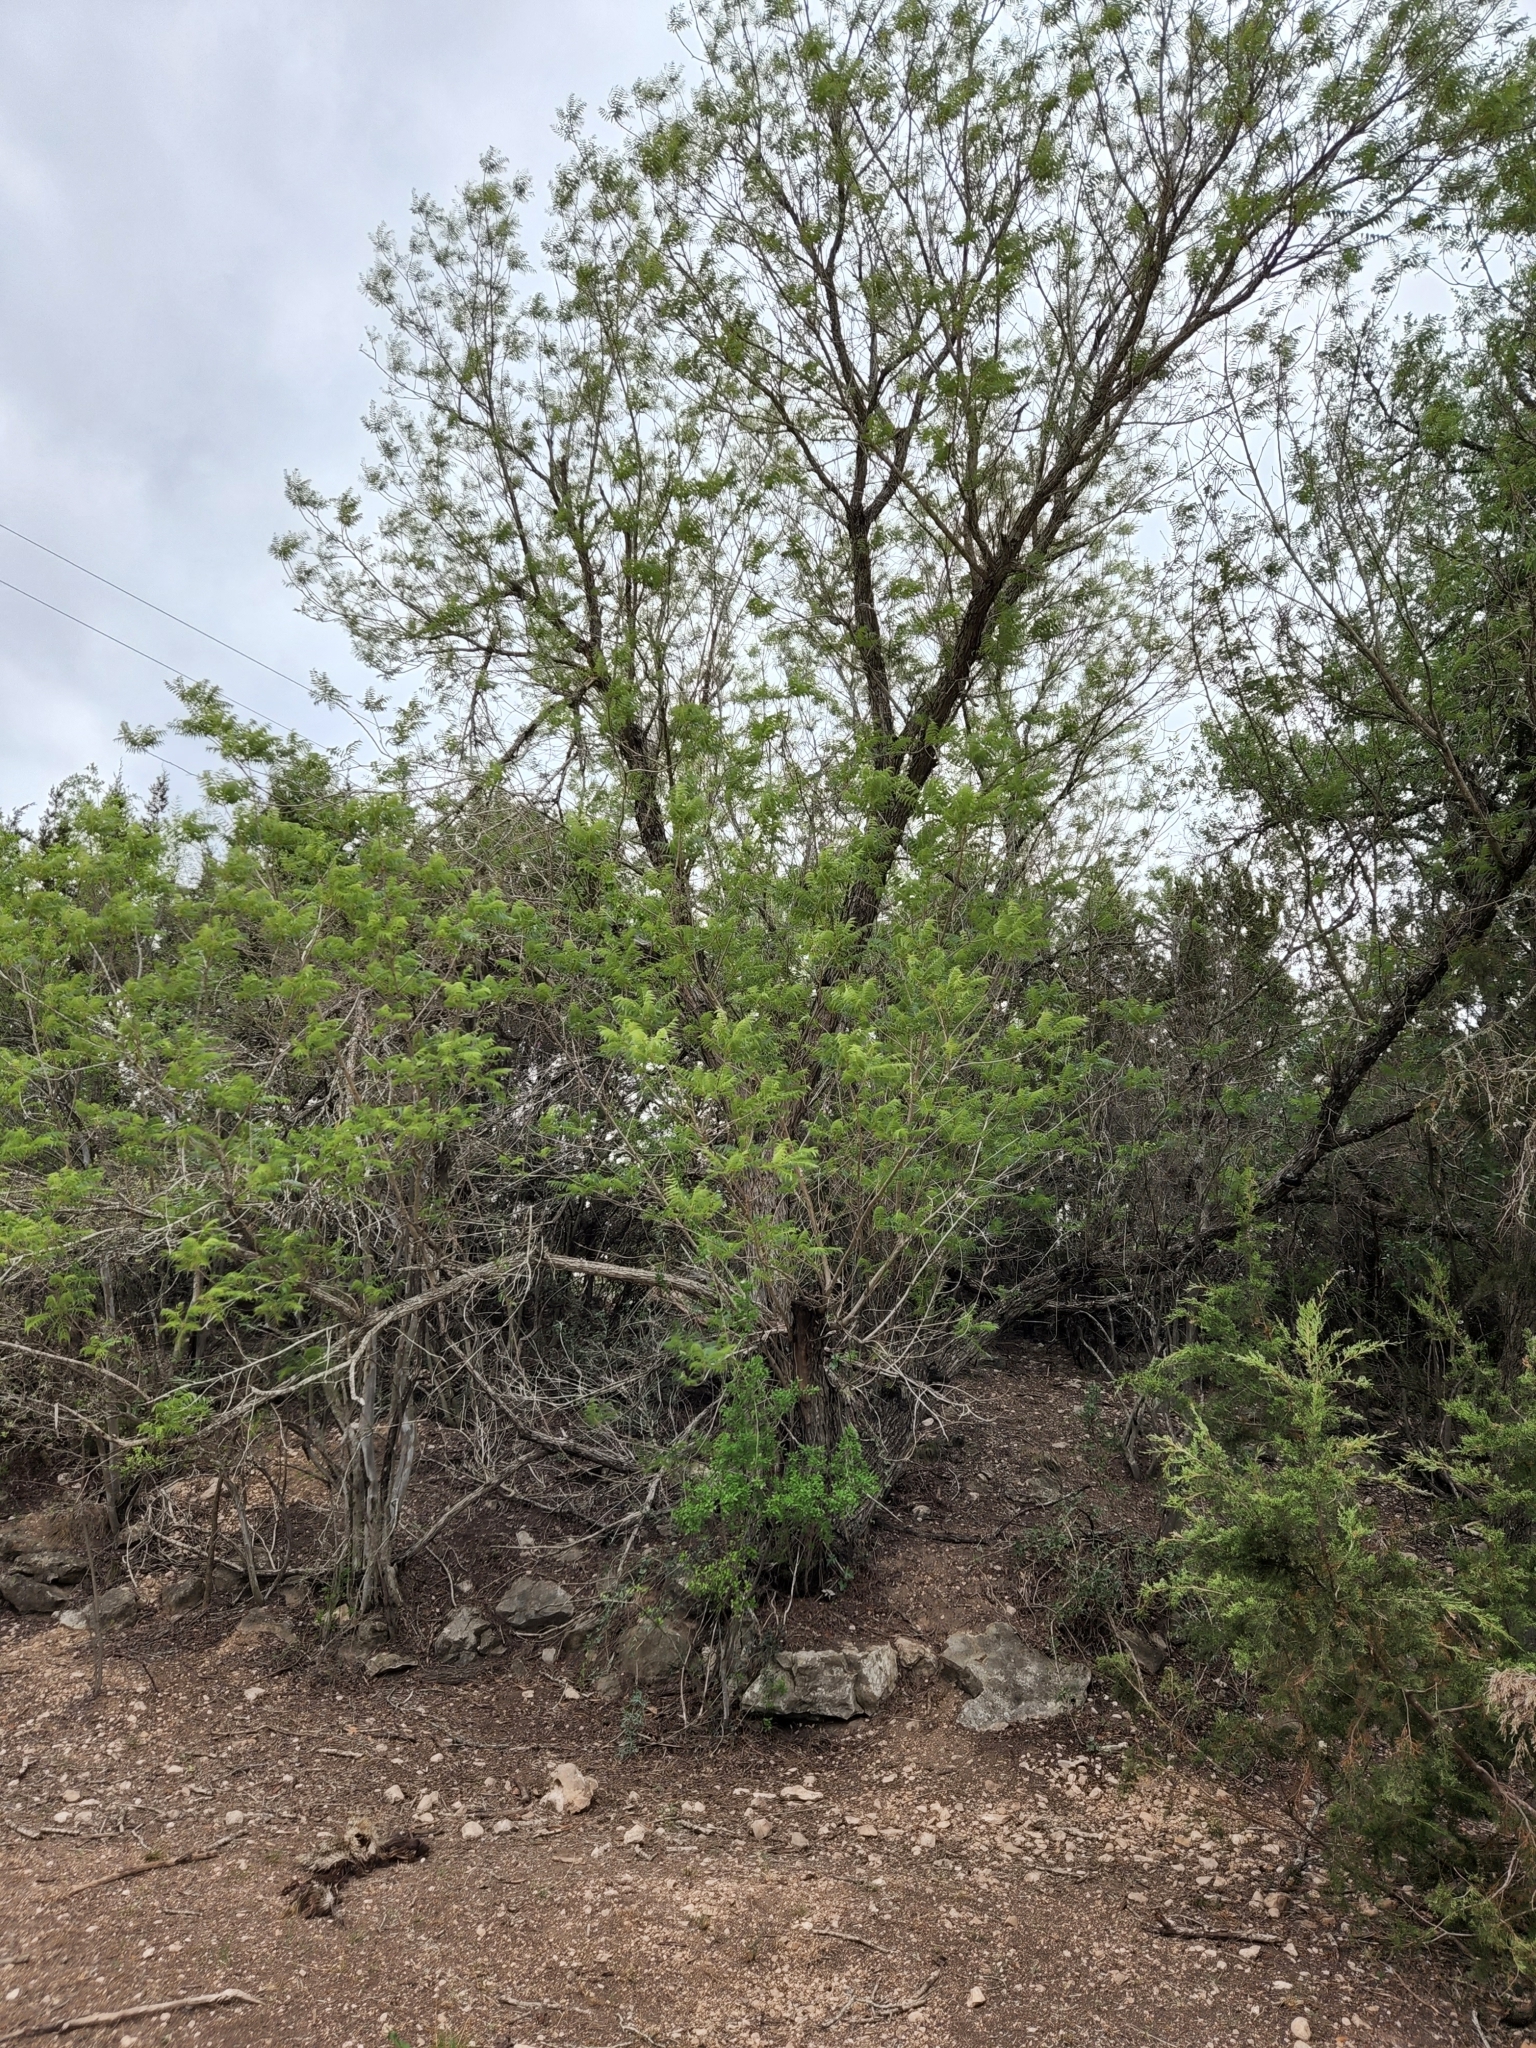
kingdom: Plantae
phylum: Tracheophyta
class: Magnoliopsida
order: Fagales
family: Juglandaceae
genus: Juglans
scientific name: Juglans microcarpa
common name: Texas walnut
